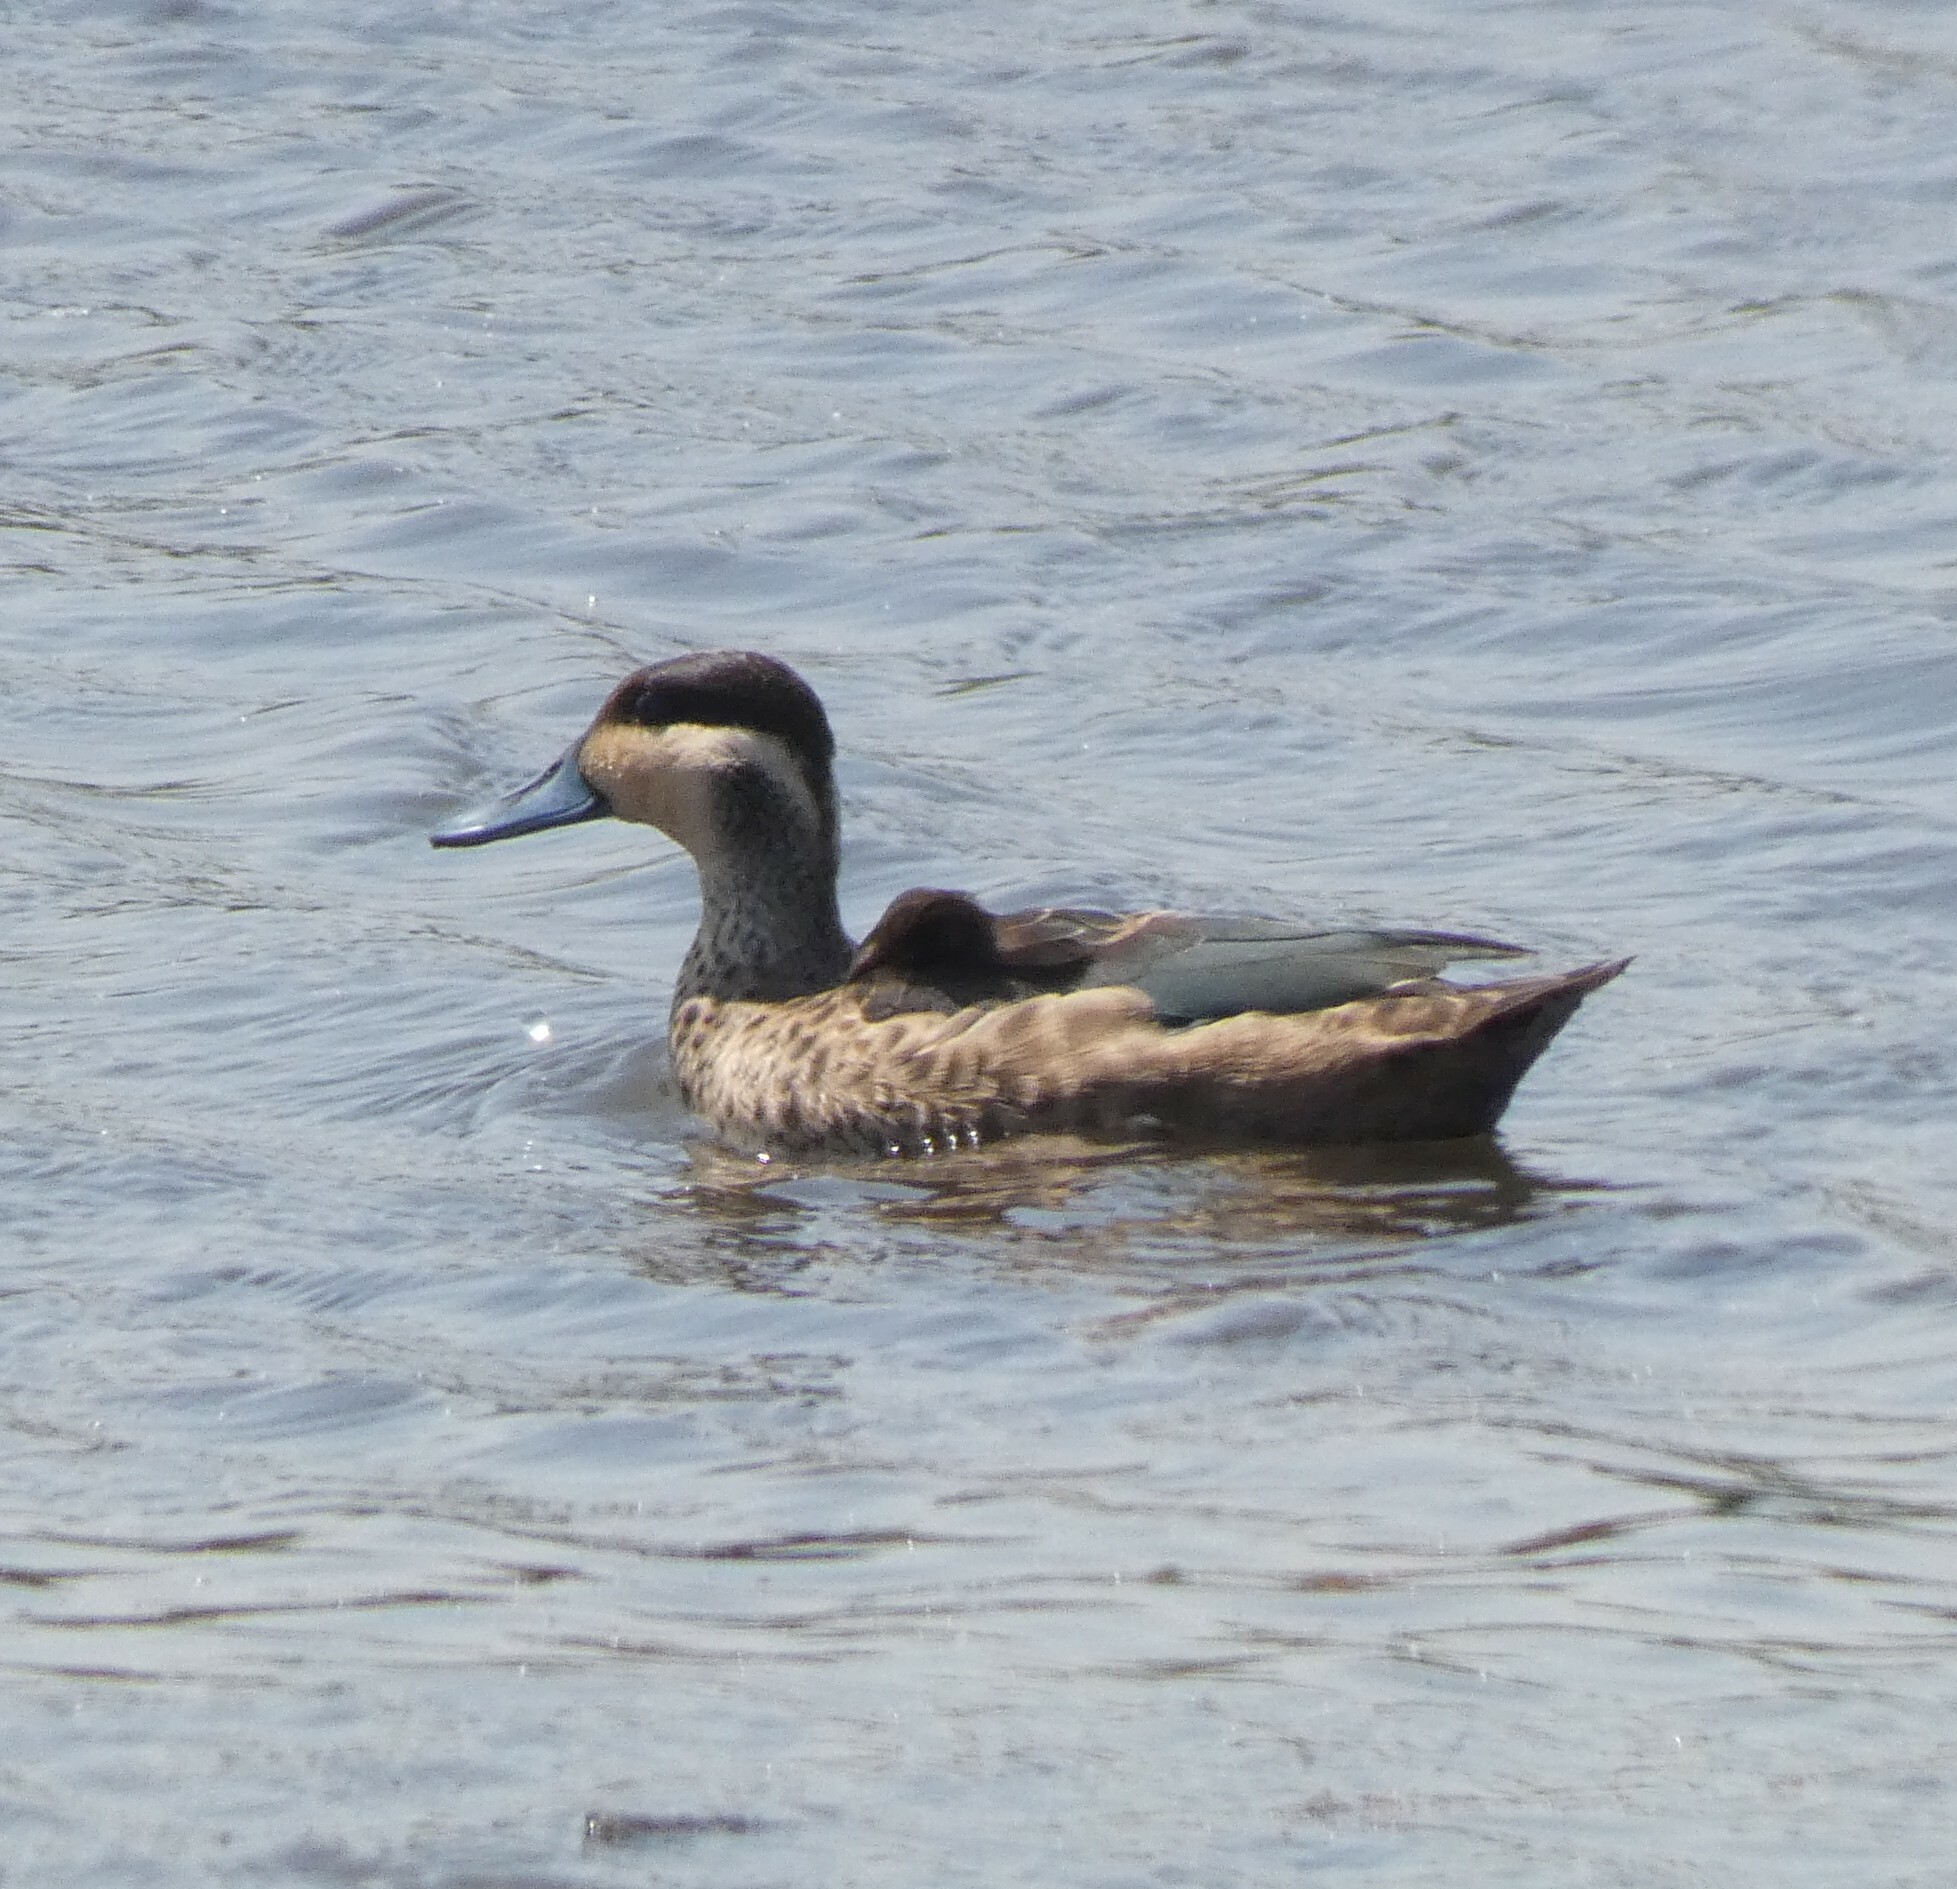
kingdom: Animalia
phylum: Chordata
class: Aves
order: Anseriformes
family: Anatidae
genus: Spatula
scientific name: Spatula hottentota
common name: Blue-billed teal
